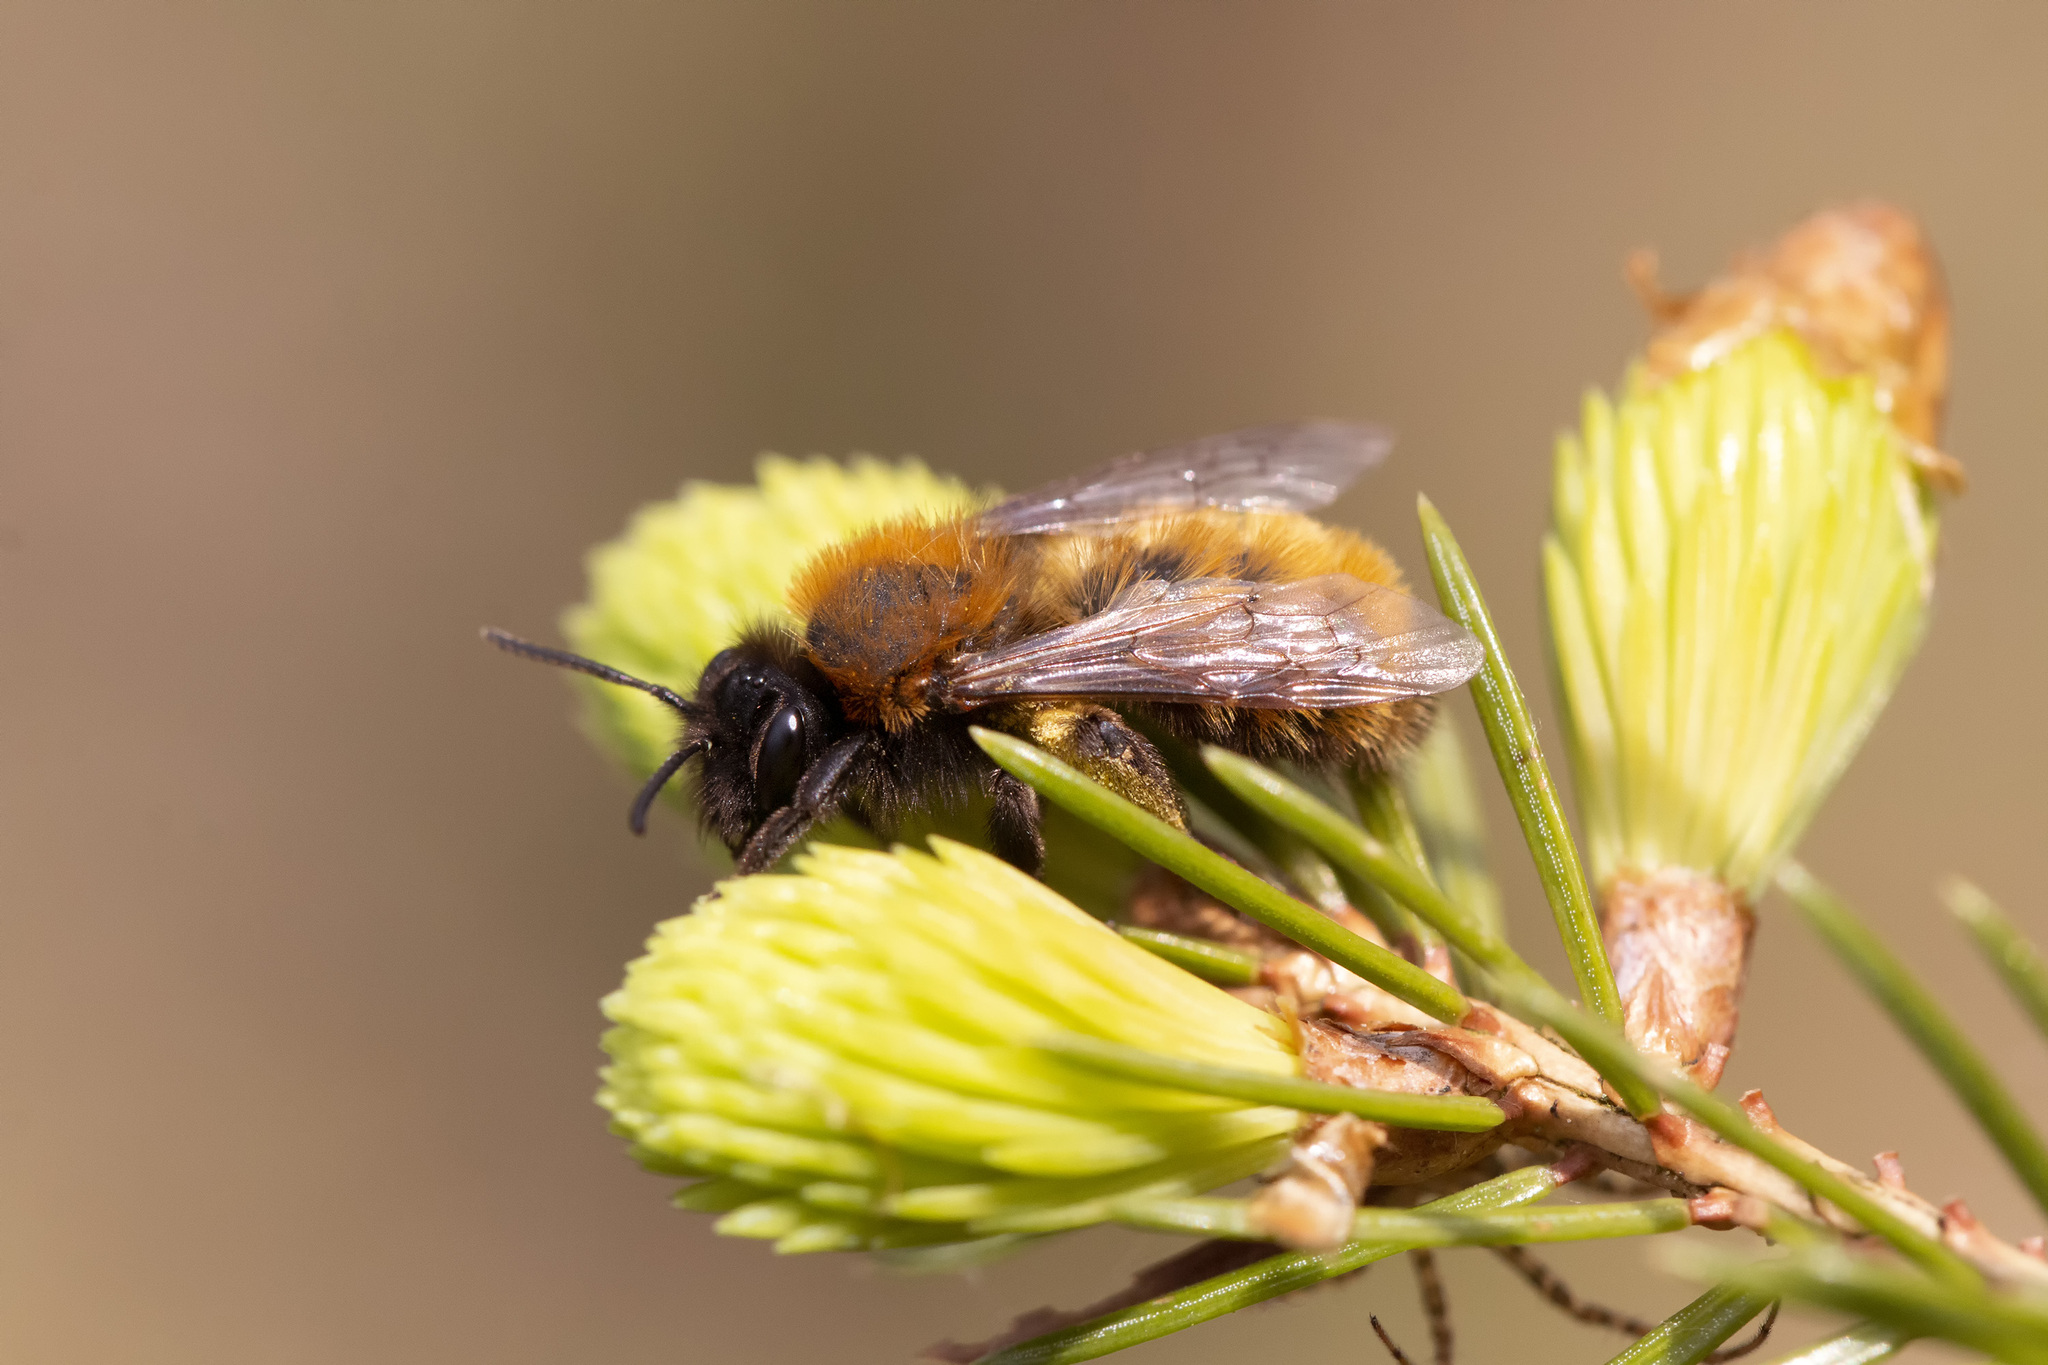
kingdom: Animalia
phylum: Arthropoda
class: Insecta
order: Hymenoptera
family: Andrenidae
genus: Andrena
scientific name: Andrena fulva
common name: Tawny mining bee
